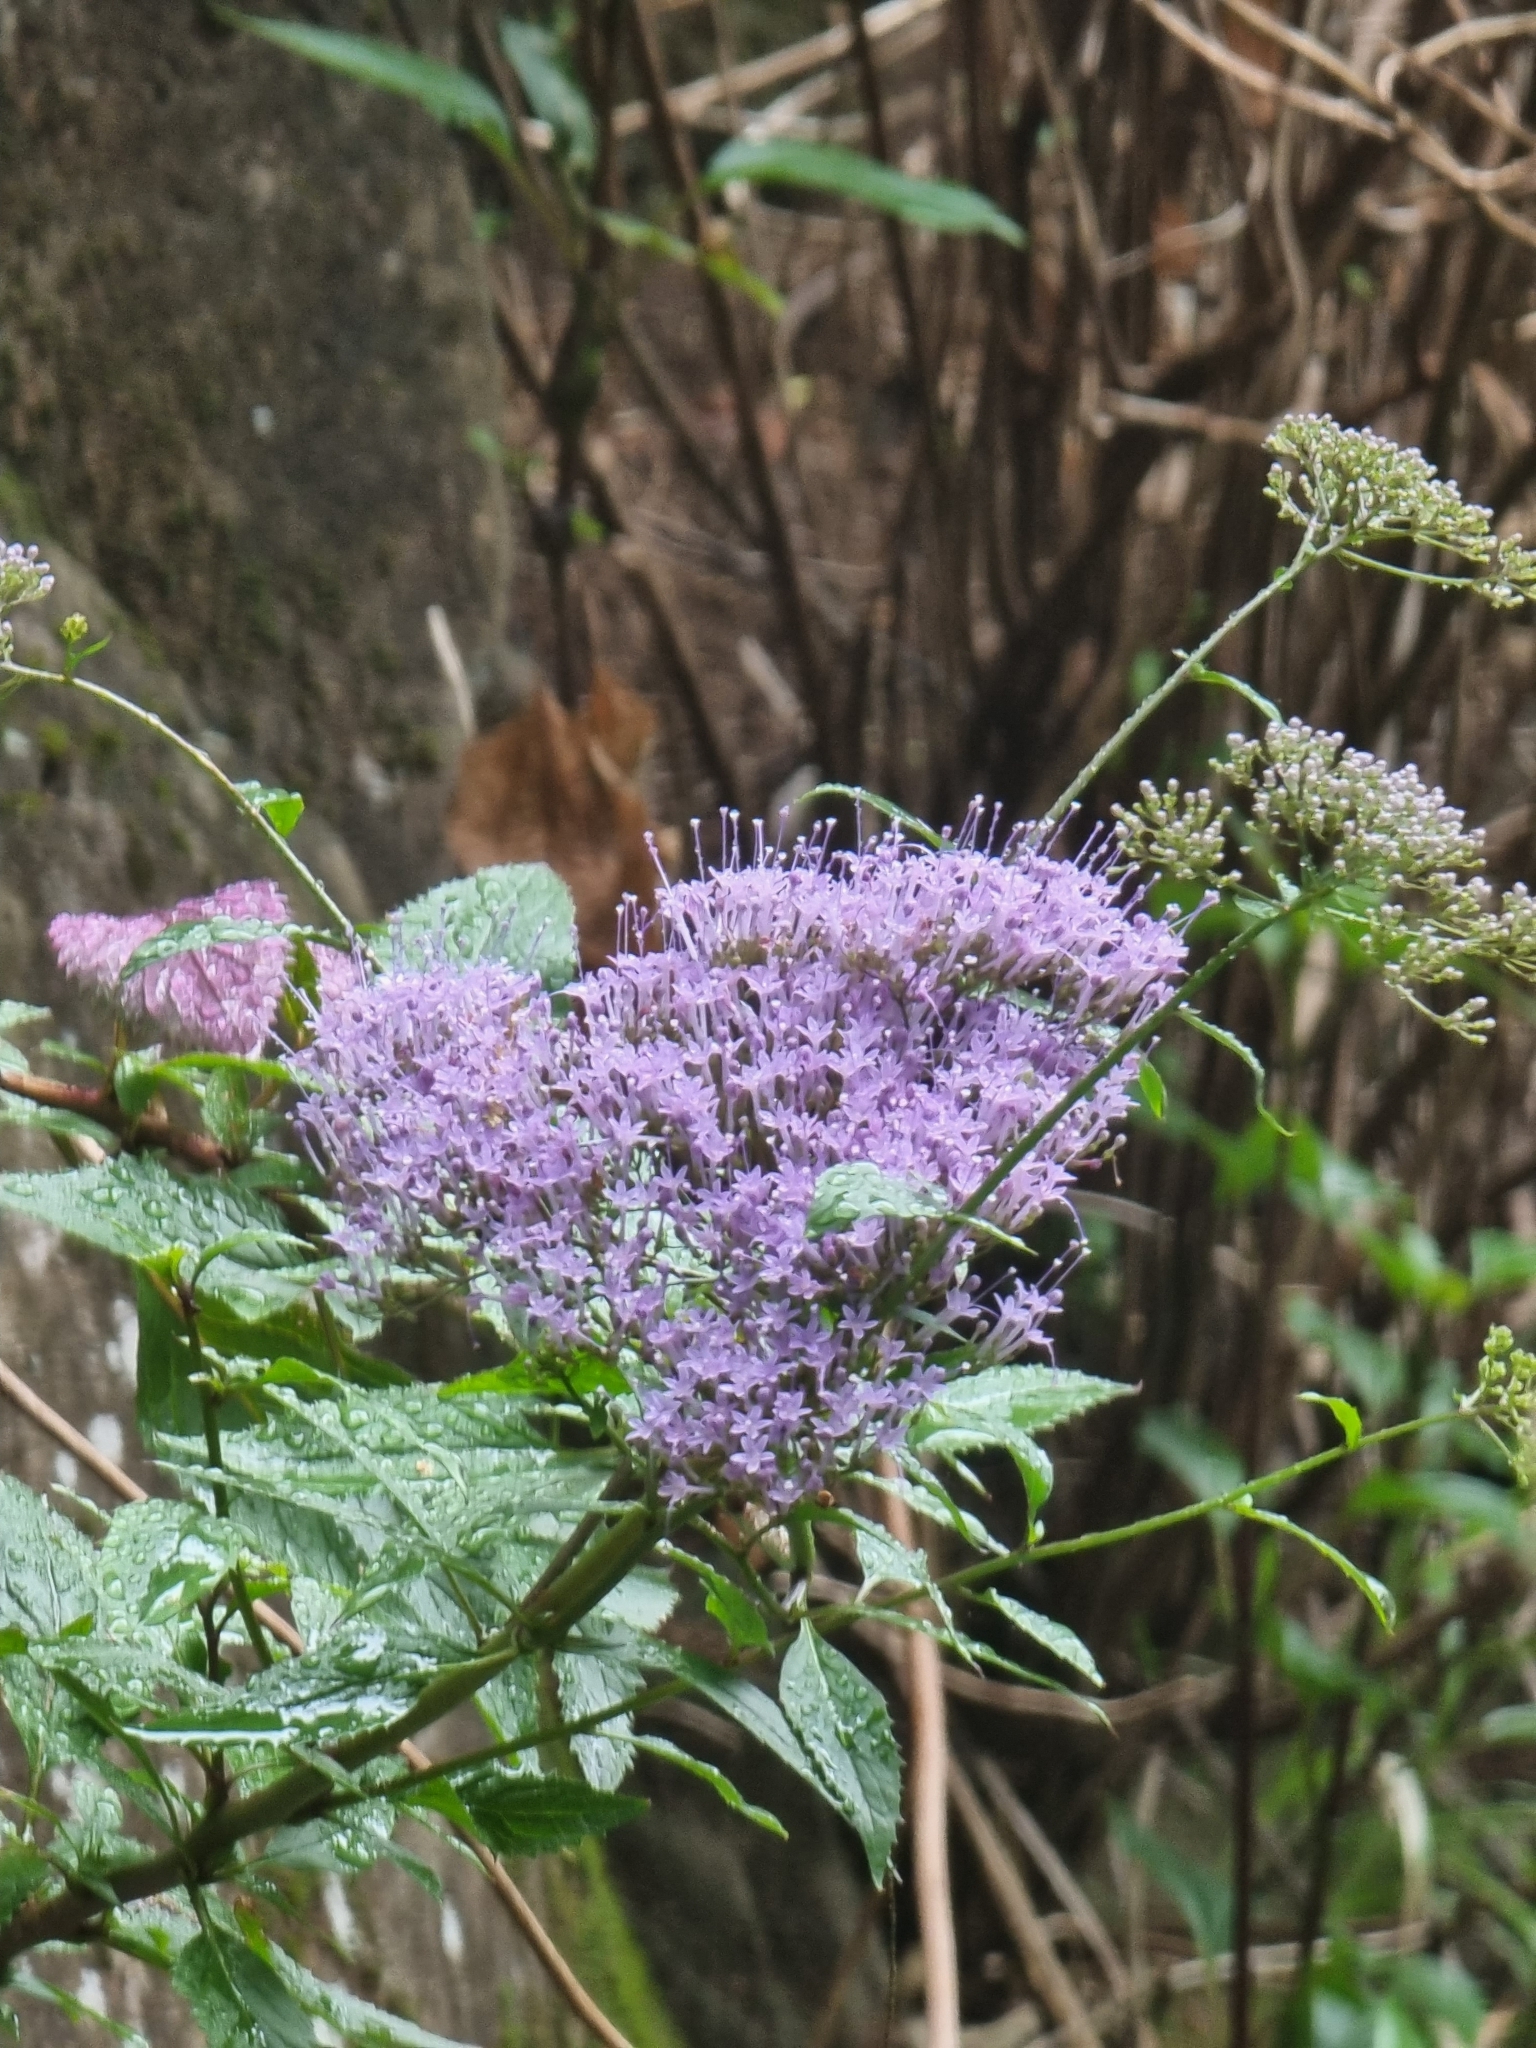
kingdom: Plantae
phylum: Tracheophyta
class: Magnoliopsida
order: Asterales
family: Campanulaceae
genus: Trachelium
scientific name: Trachelium caeruleum
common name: Throatwort
